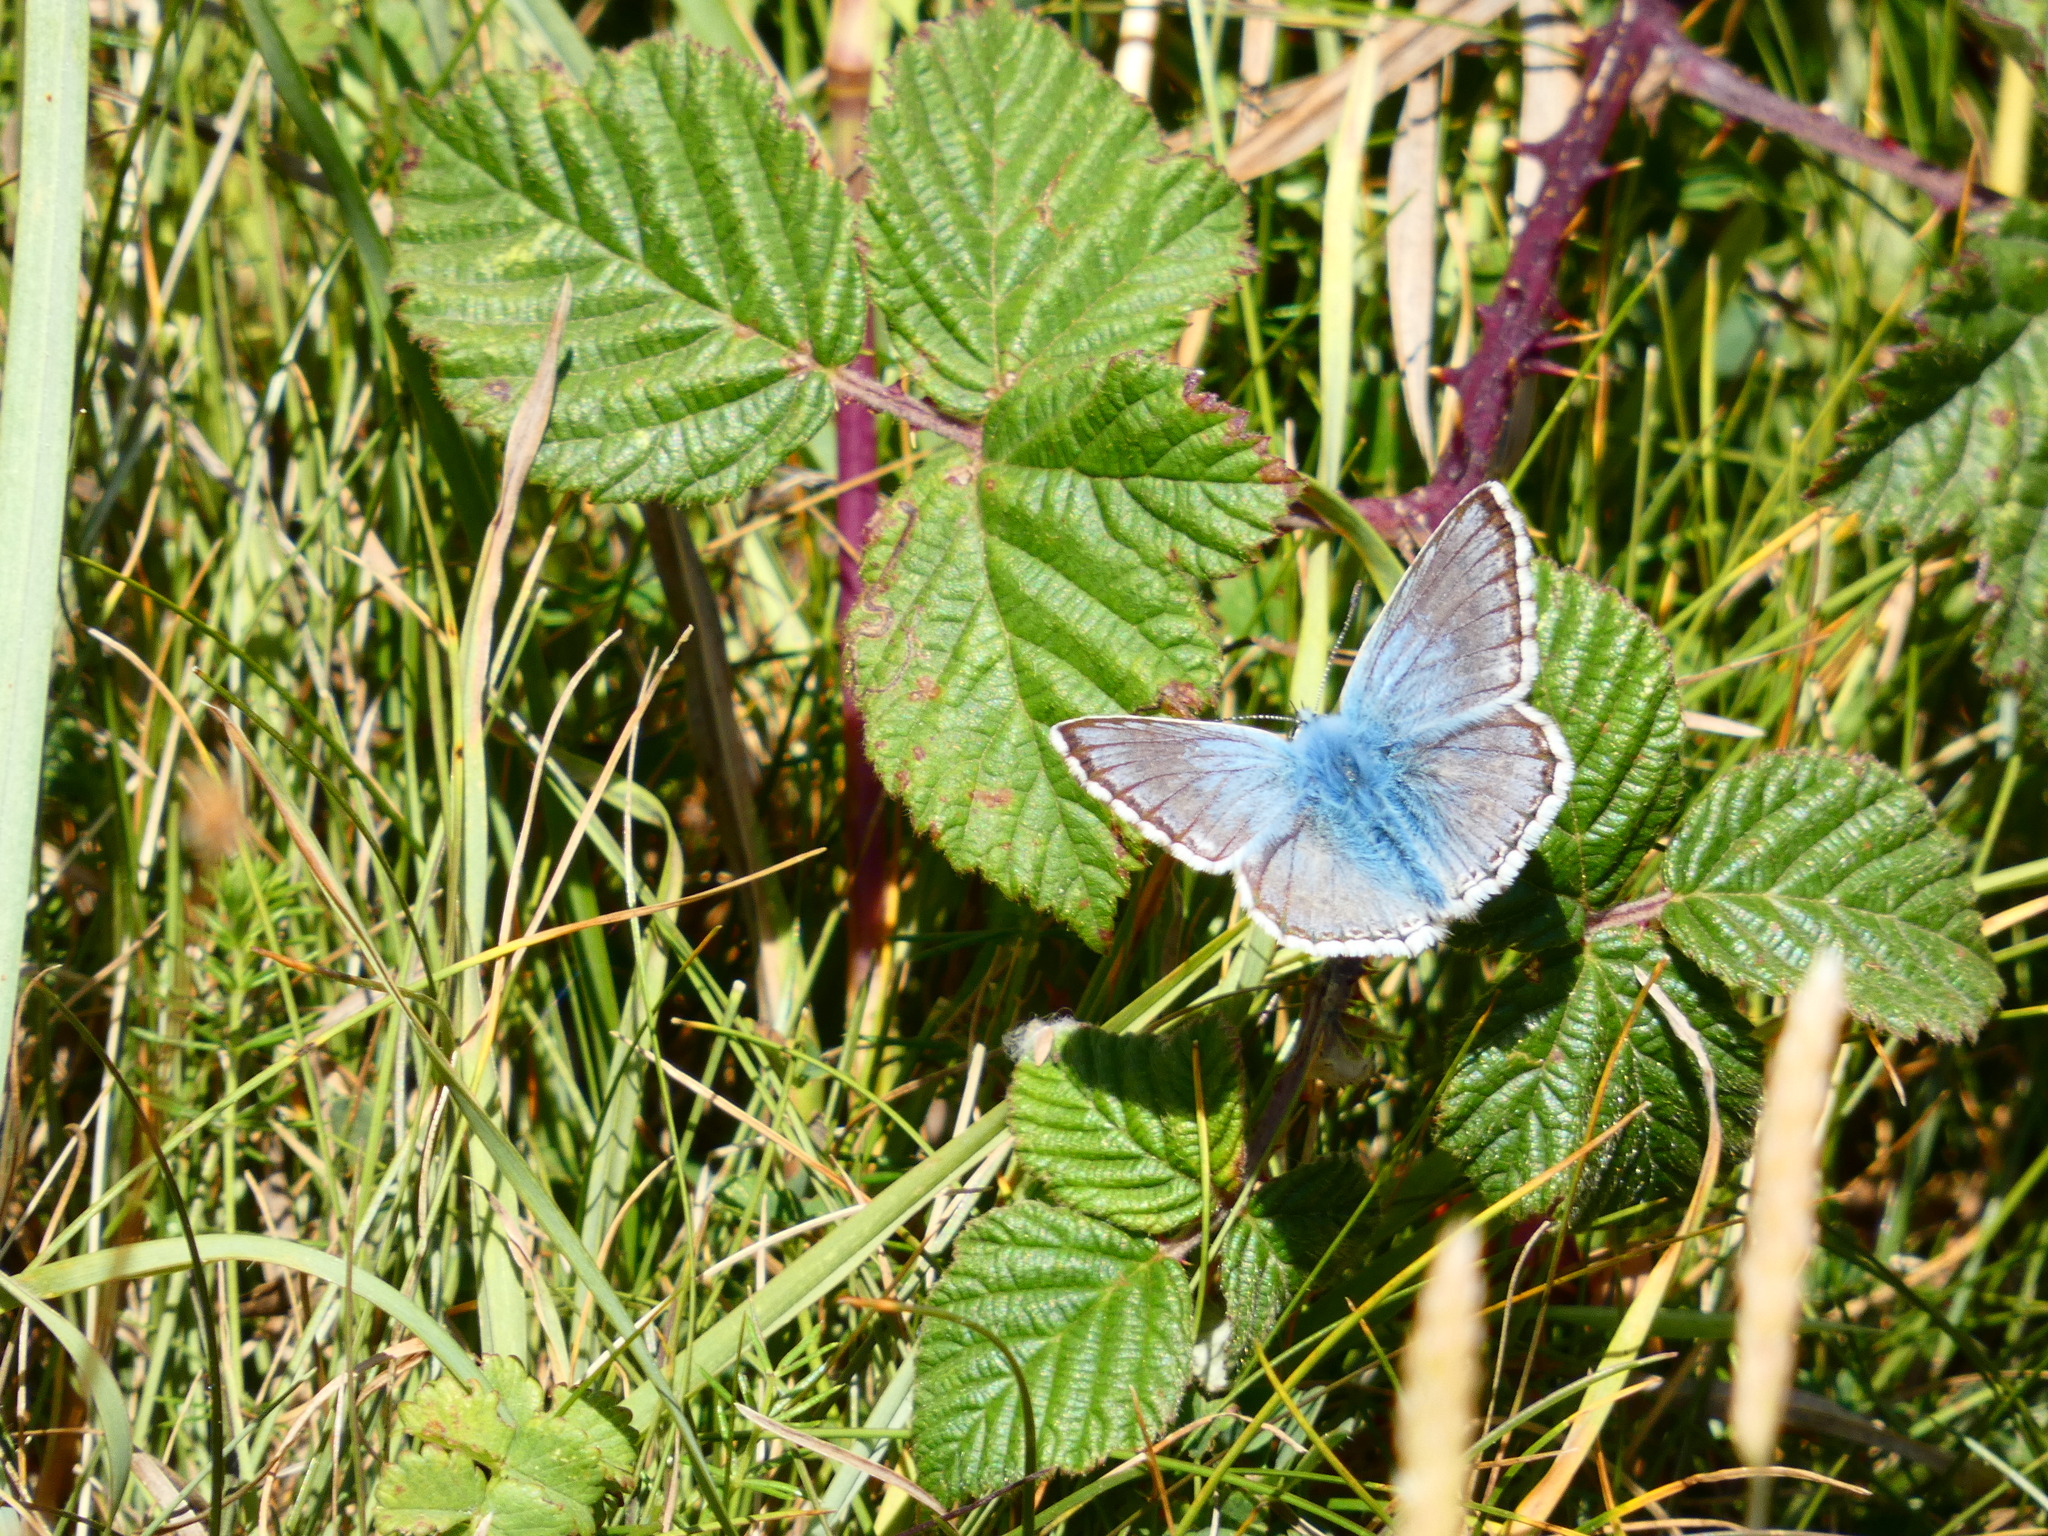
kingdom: Animalia
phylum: Arthropoda
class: Insecta
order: Lepidoptera
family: Lycaenidae
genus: Lysandra
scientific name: Lysandra coridon
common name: Chalkhill blue
